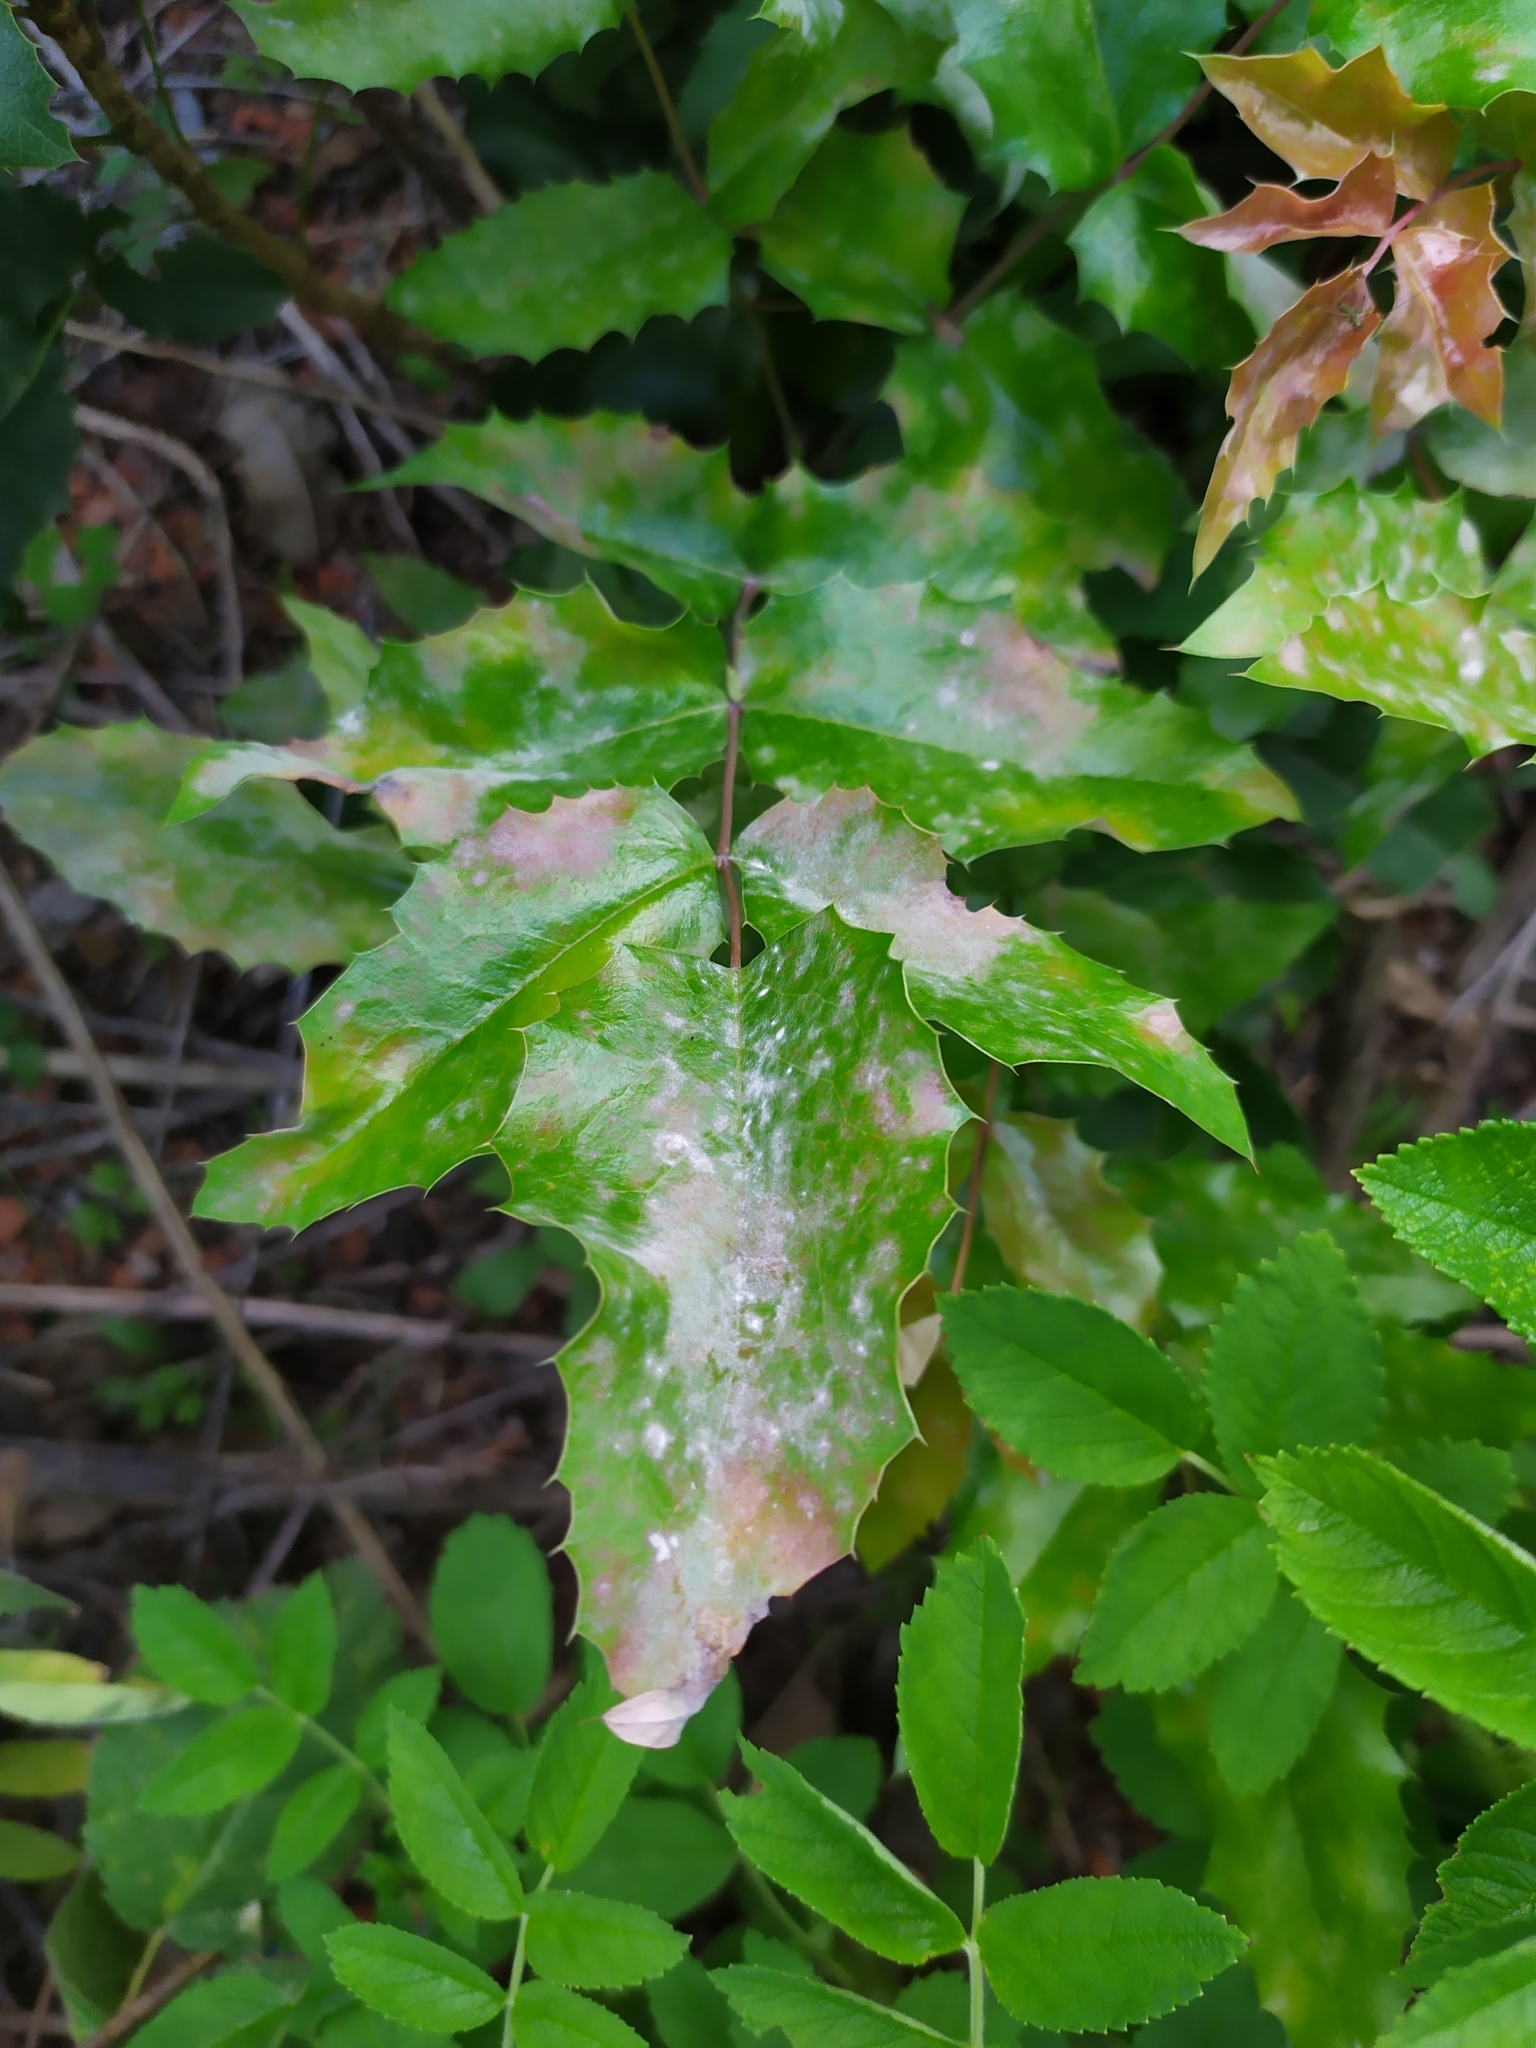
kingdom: Fungi
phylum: Ascomycota
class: Leotiomycetes
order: Helotiales
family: Erysiphaceae
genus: Erysiphe
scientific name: Erysiphe berberidis
